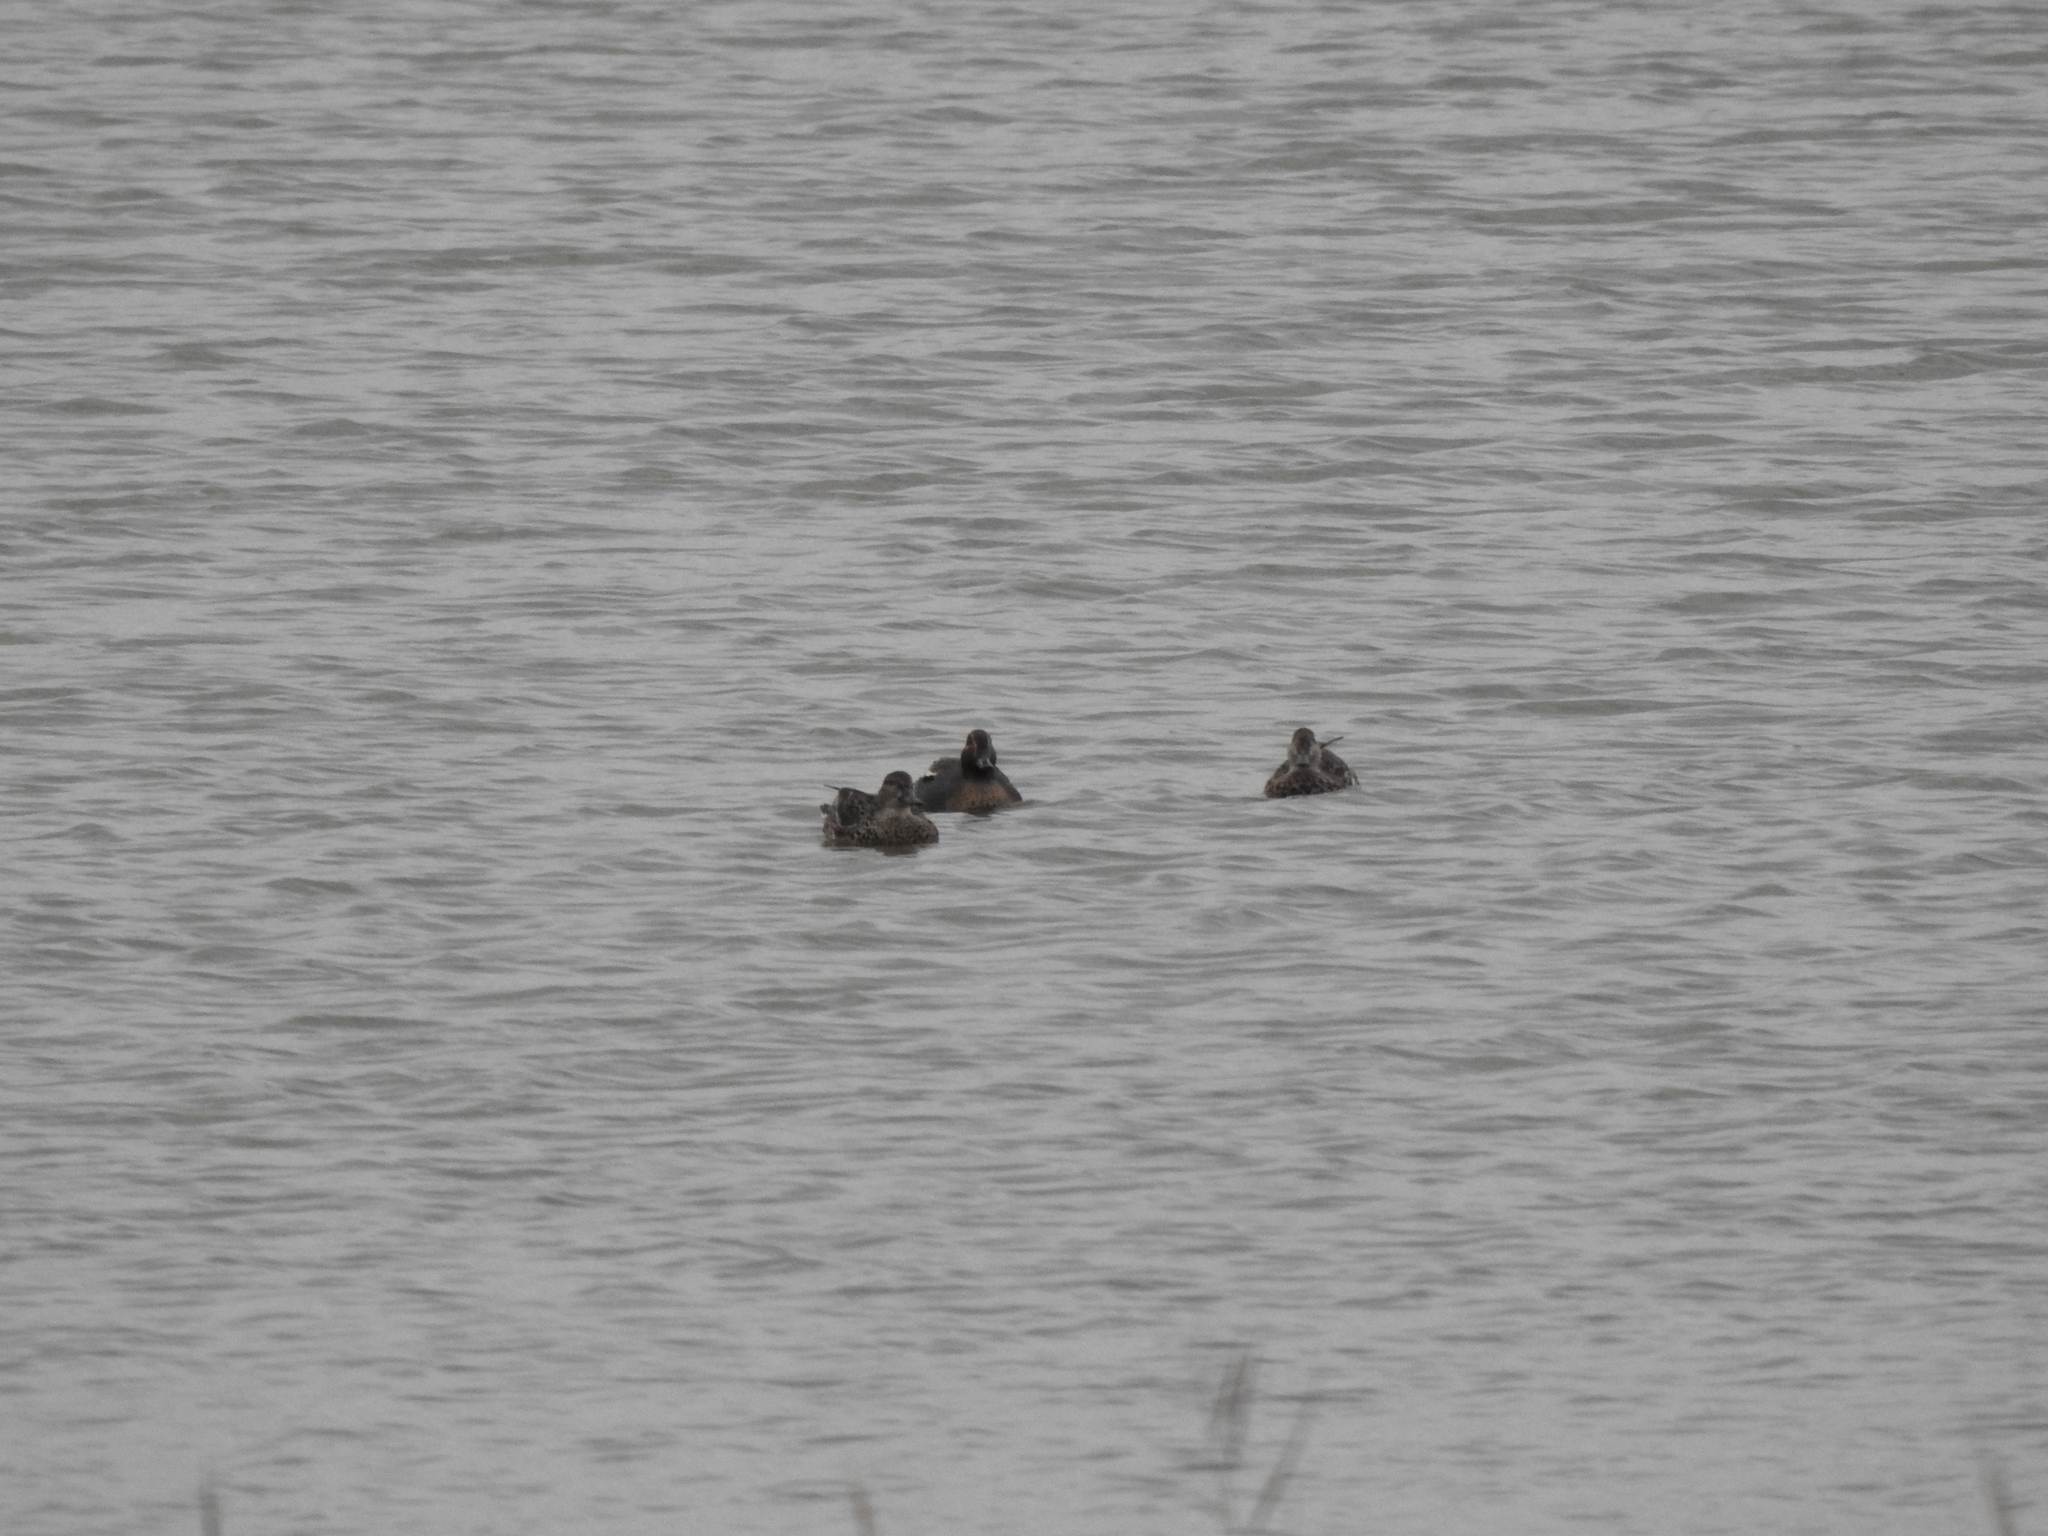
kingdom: Animalia
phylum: Chordata
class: Aves
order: Anseriformes
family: Anatidae
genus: Anas
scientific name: Anas crecca
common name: Eurasian teal
